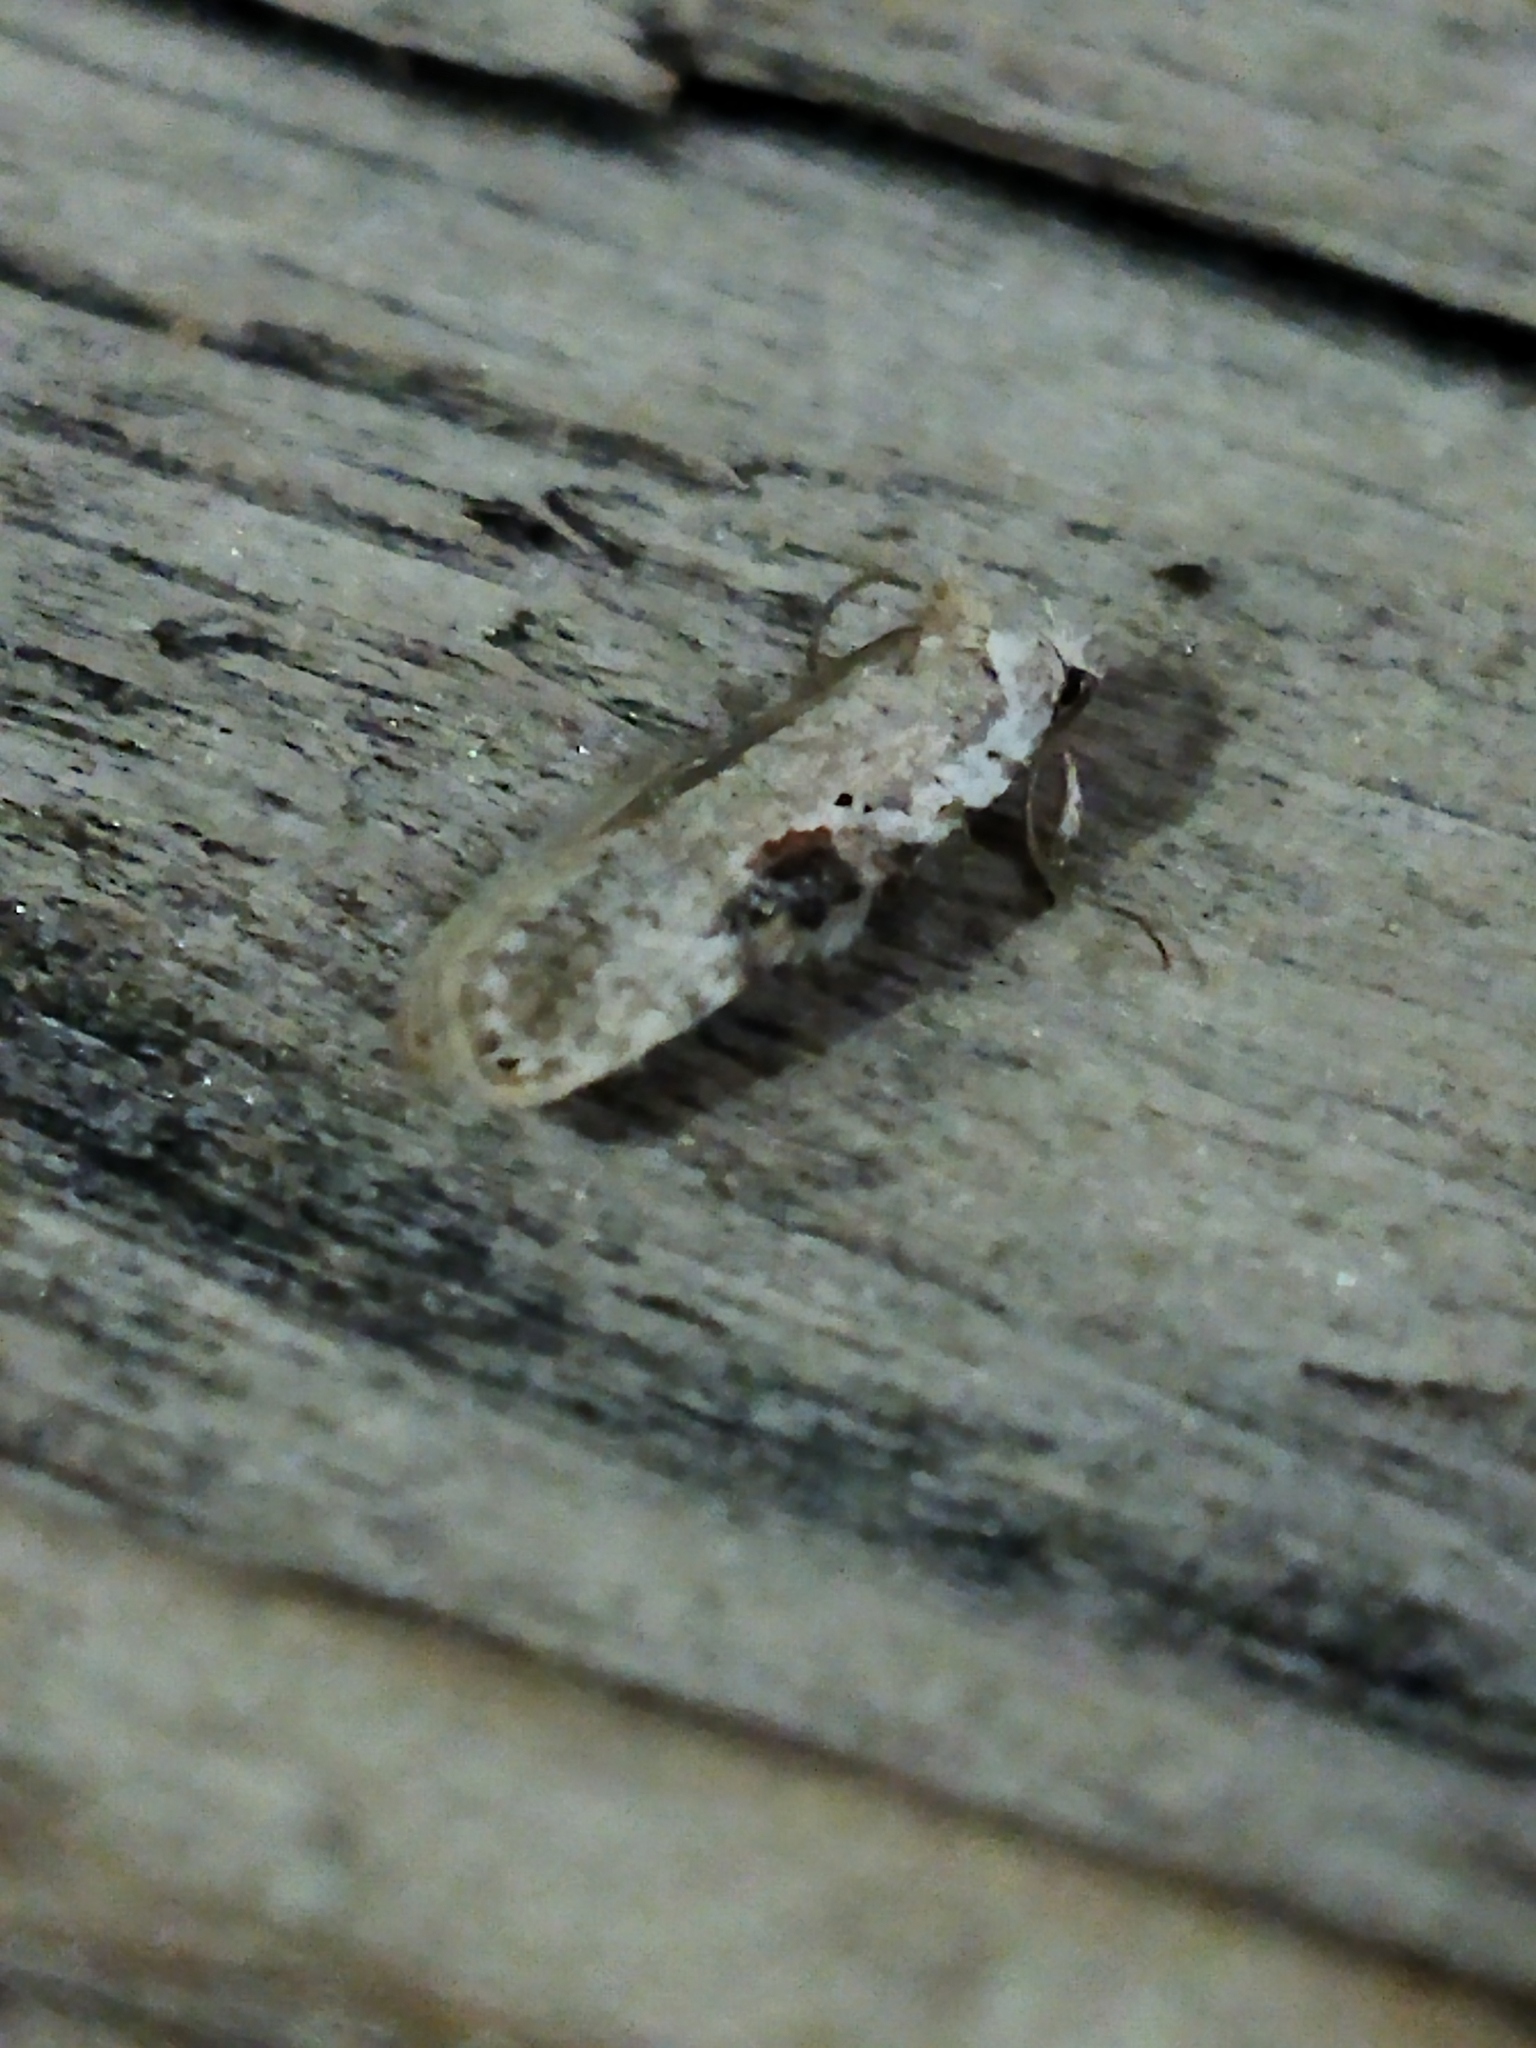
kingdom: Animalia
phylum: Arthropoda
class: Insecta
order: Lepidoptera
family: Depressariidae
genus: Agonopterix
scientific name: Agonopterix alstroemeriana
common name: Moth
